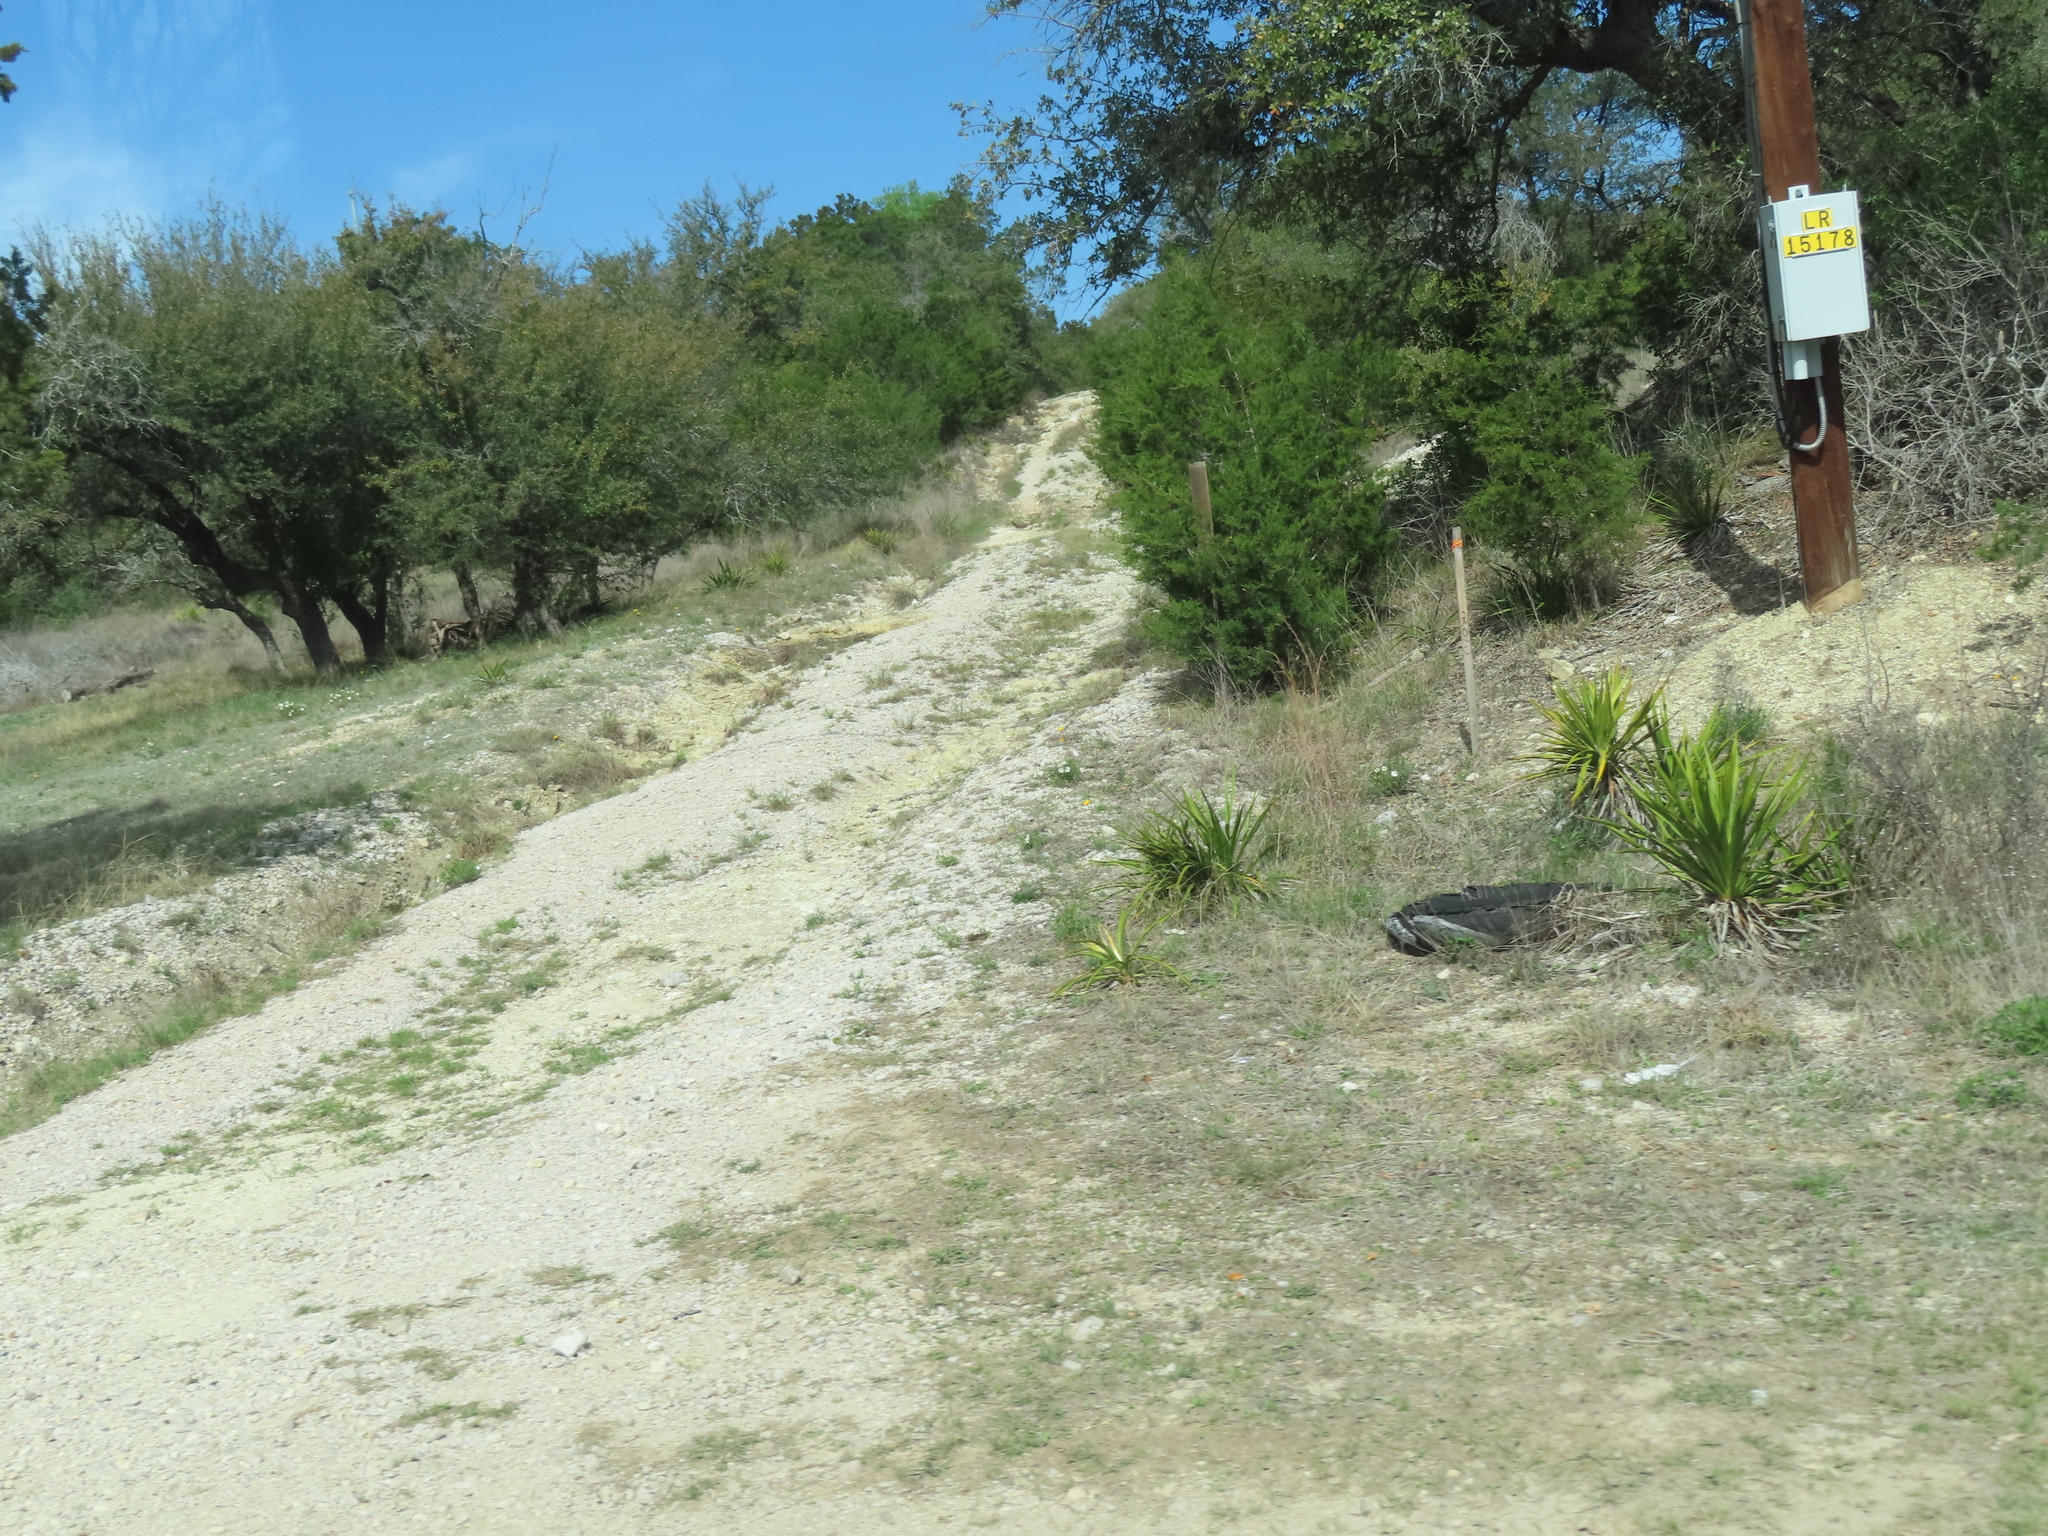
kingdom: Plantae
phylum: Tracheophyta
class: Liliopsida
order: Asparagales
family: Asparagaceae
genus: Yucca
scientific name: Yucca rupicola
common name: Twisted-leaf spanish-dagger
